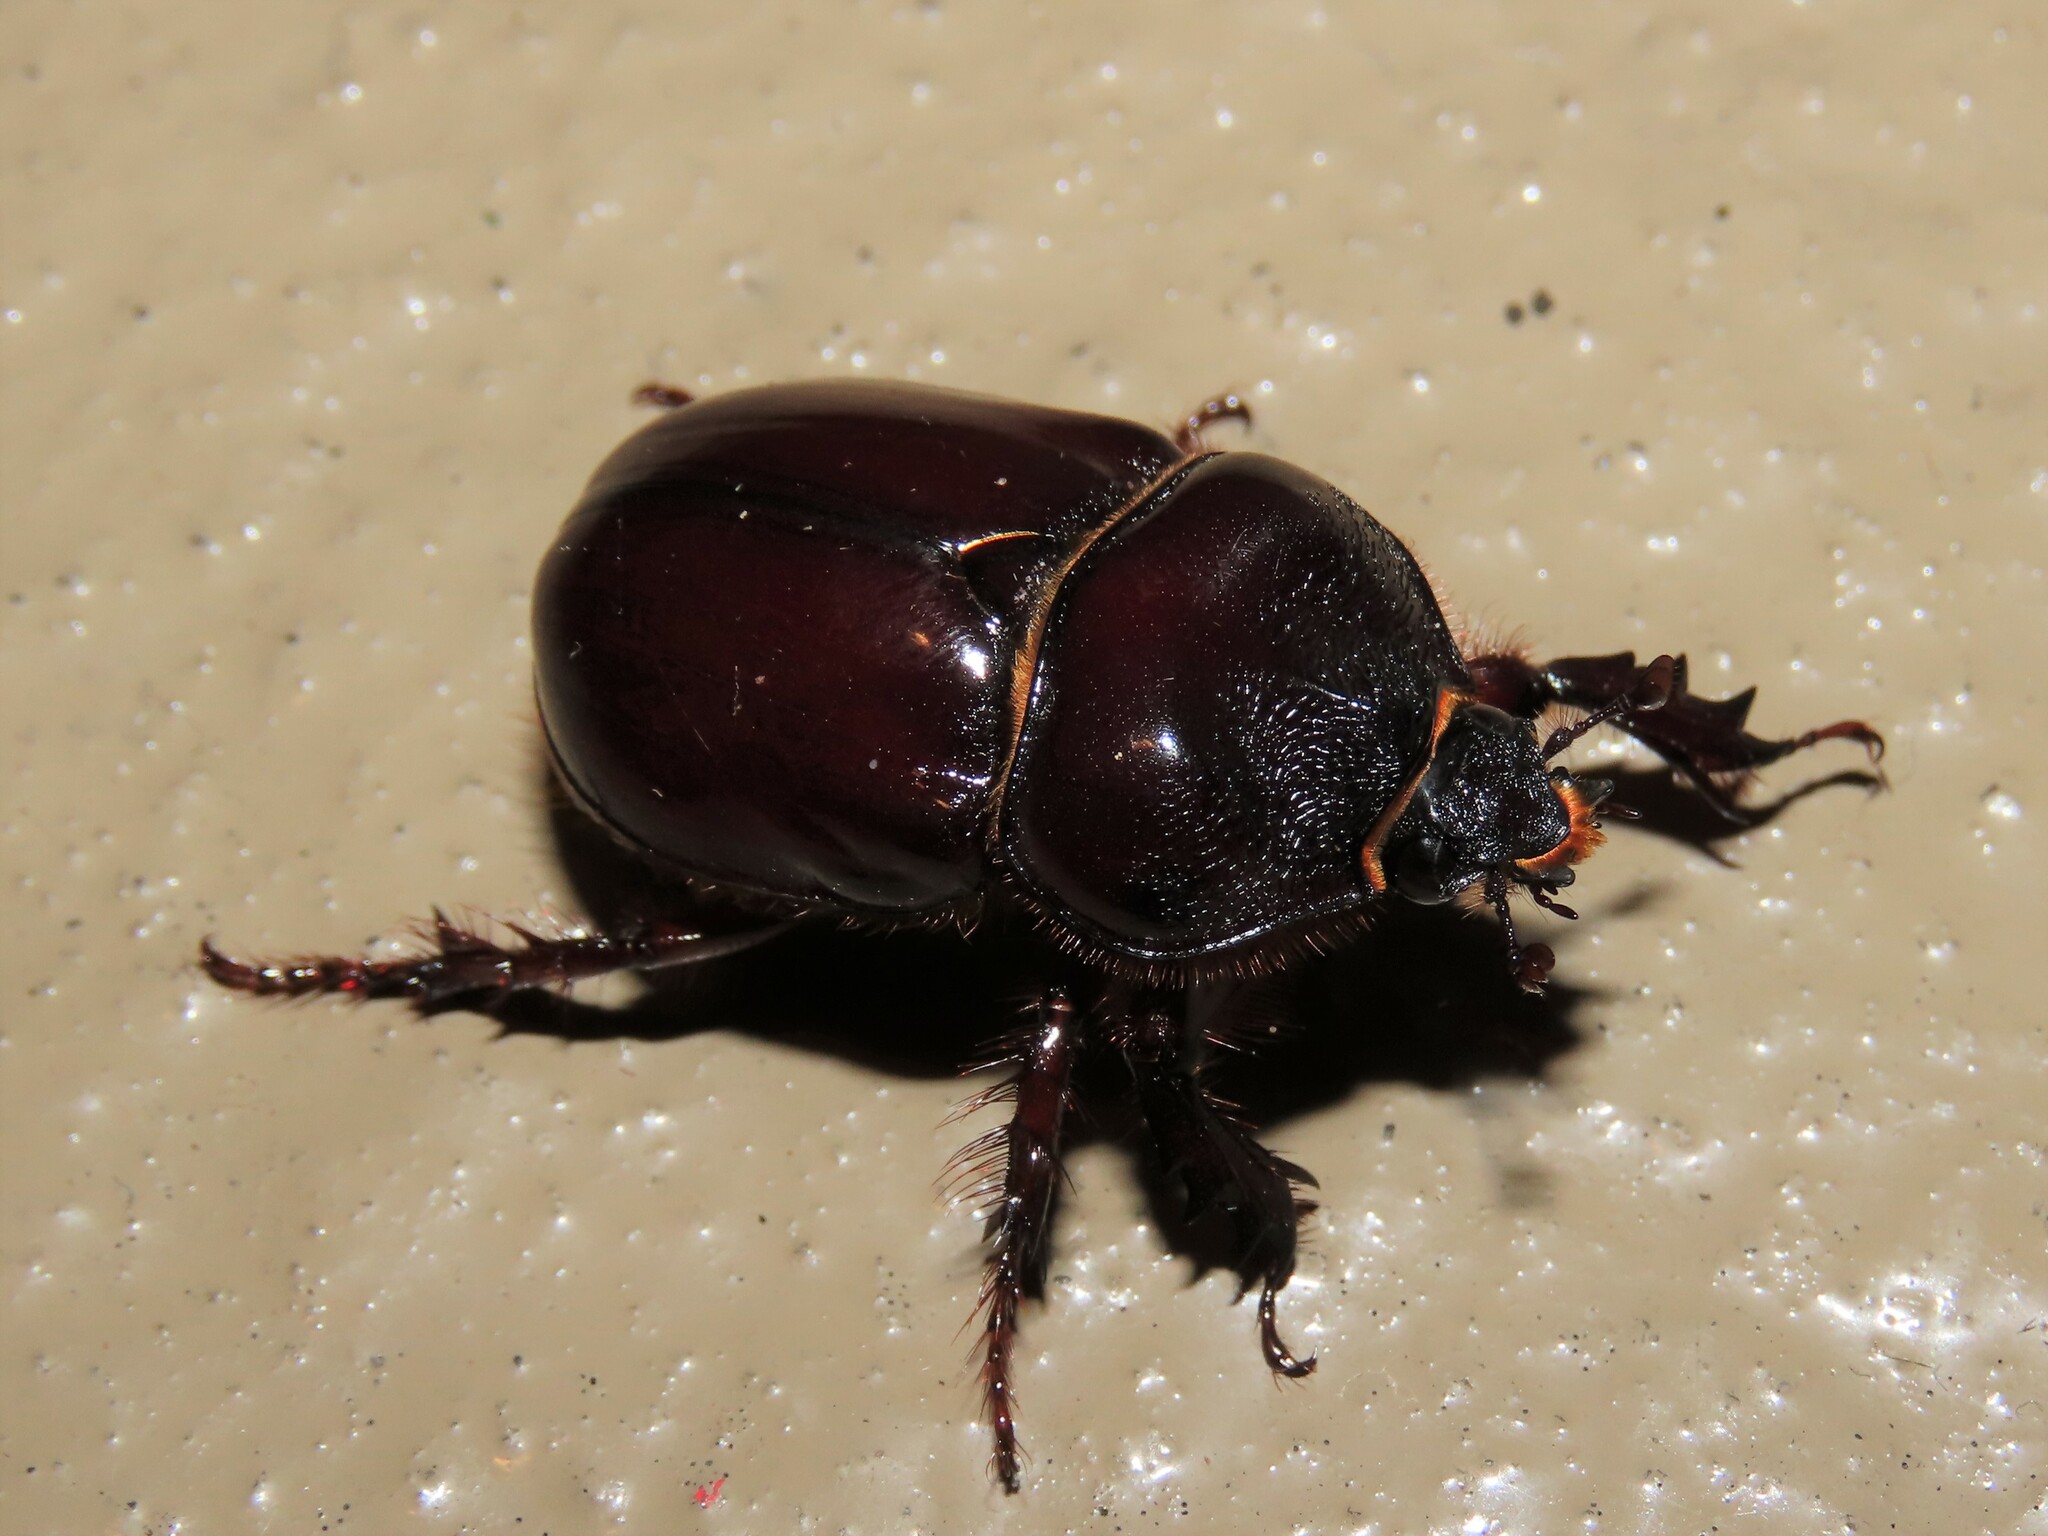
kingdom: Animalia
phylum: Arthropoda
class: Insecta
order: Coleoptera
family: Scarabaeidae
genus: Strategus
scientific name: Strategus antaeus
